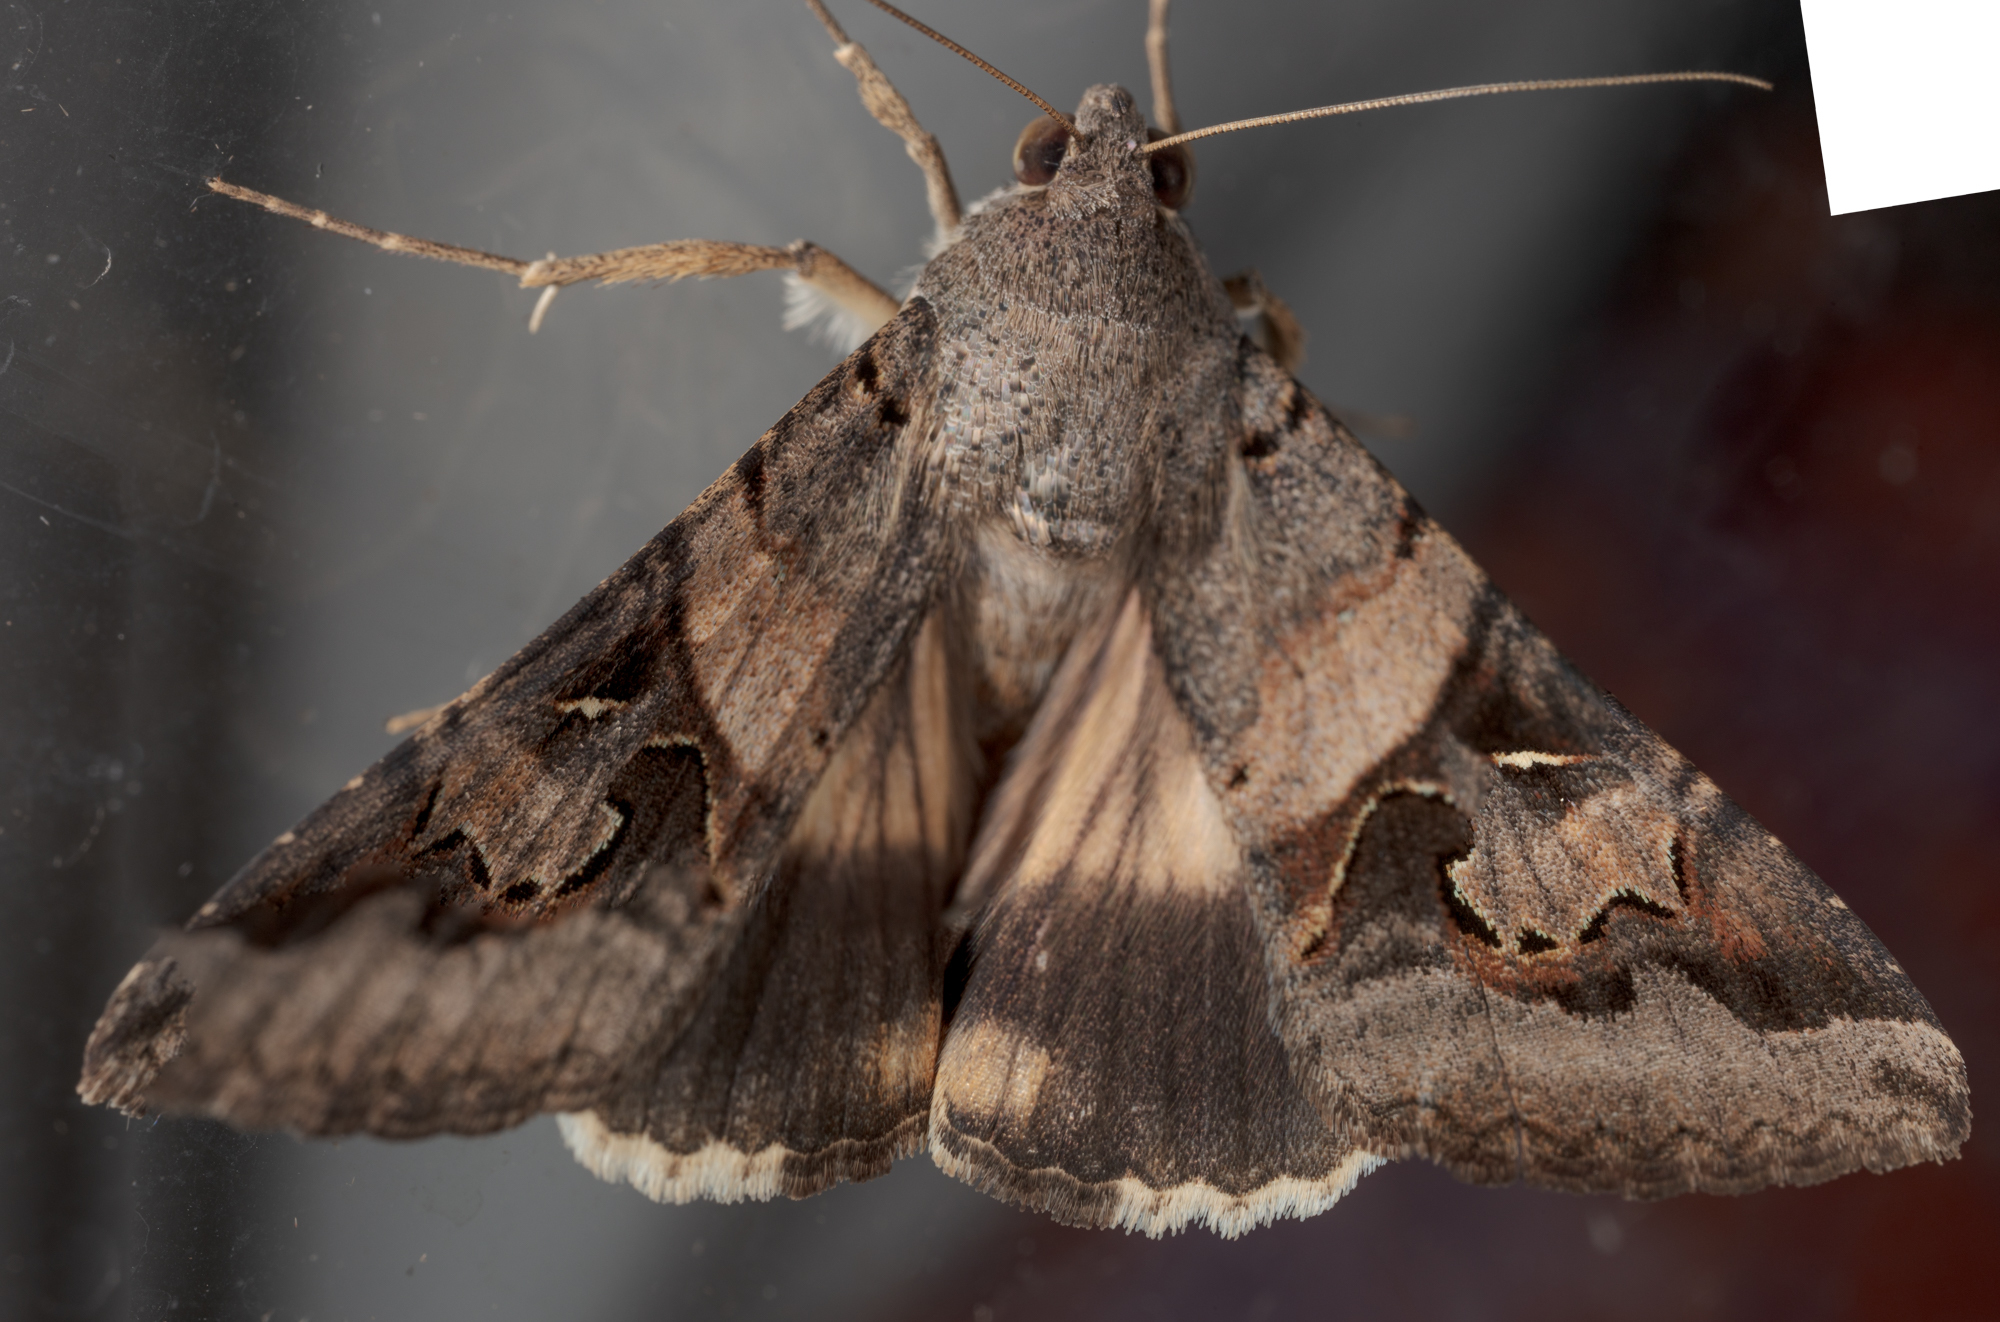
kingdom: Animalia
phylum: Arthropoda
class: Insecta
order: Lepidoptera
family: Erebidae
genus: Melipotis
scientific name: Melipotis indomita
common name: Moth
